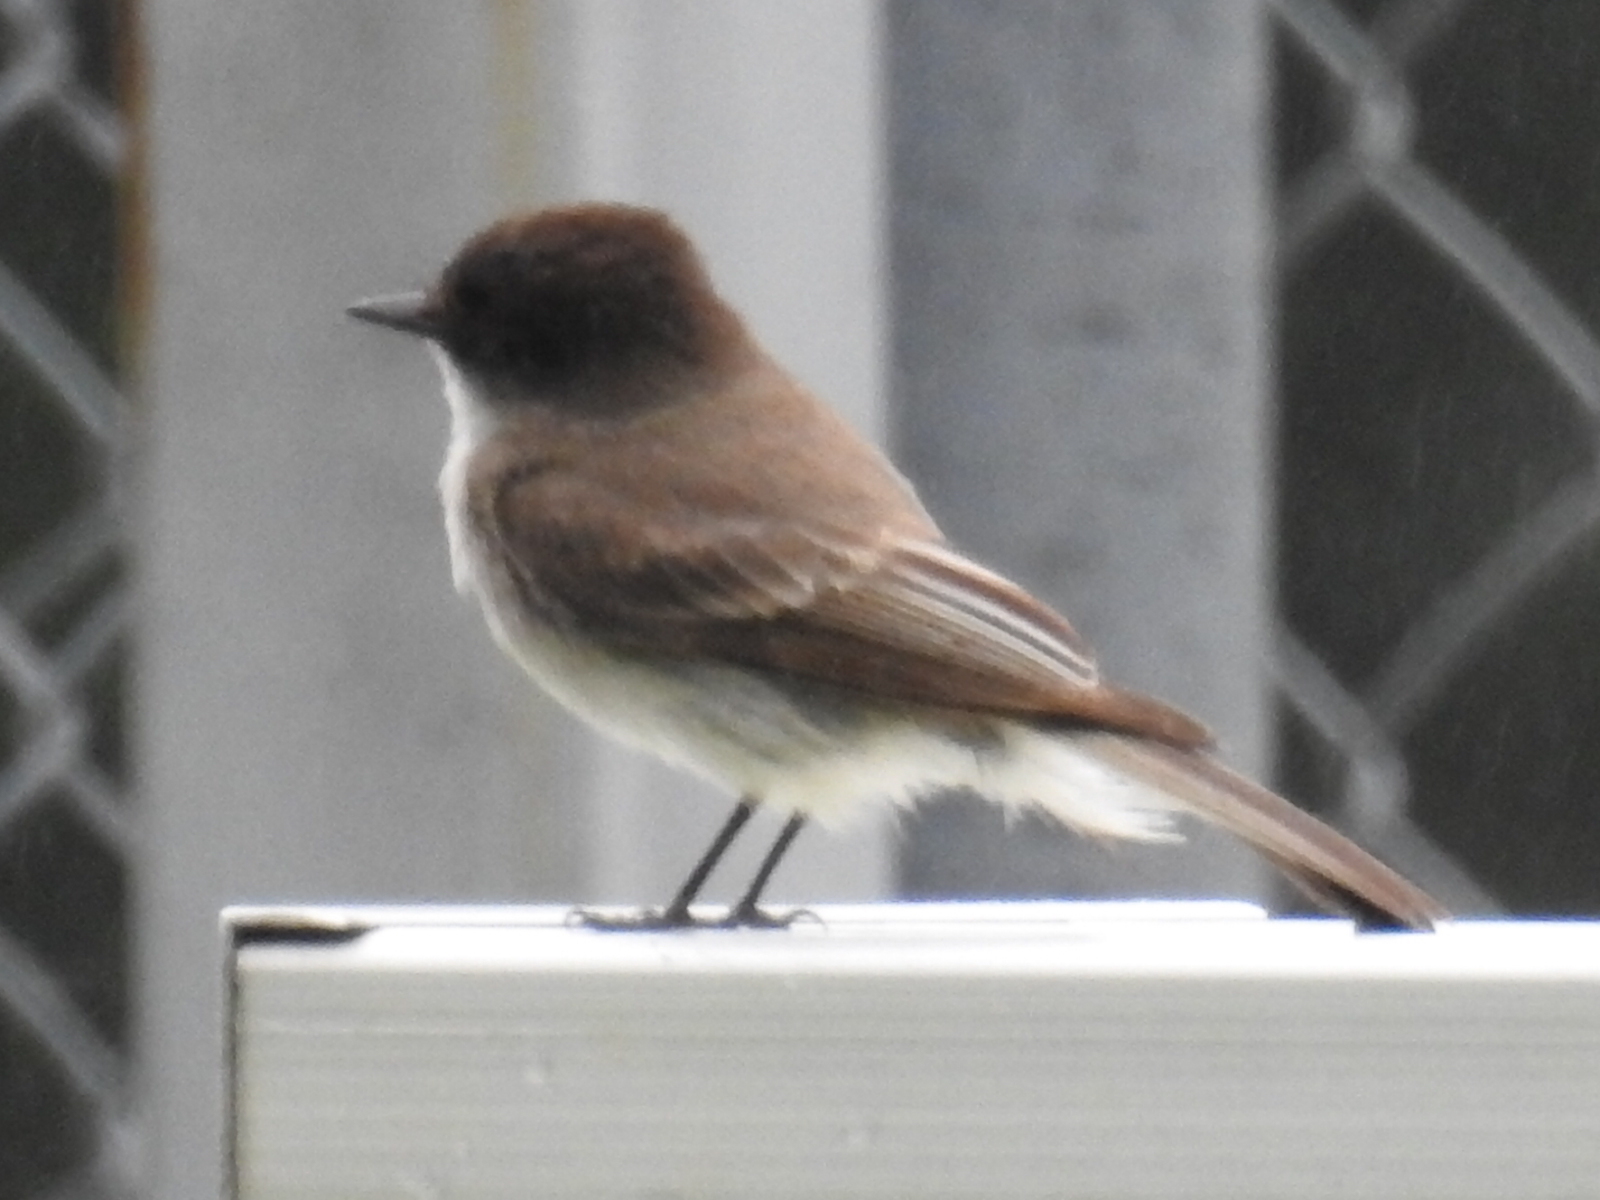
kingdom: Animalia
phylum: Chordata
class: Aves
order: Passeriformes
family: Tyrannidae
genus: Sayornis
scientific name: Sayornis phoebe
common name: Eastern phoebe
